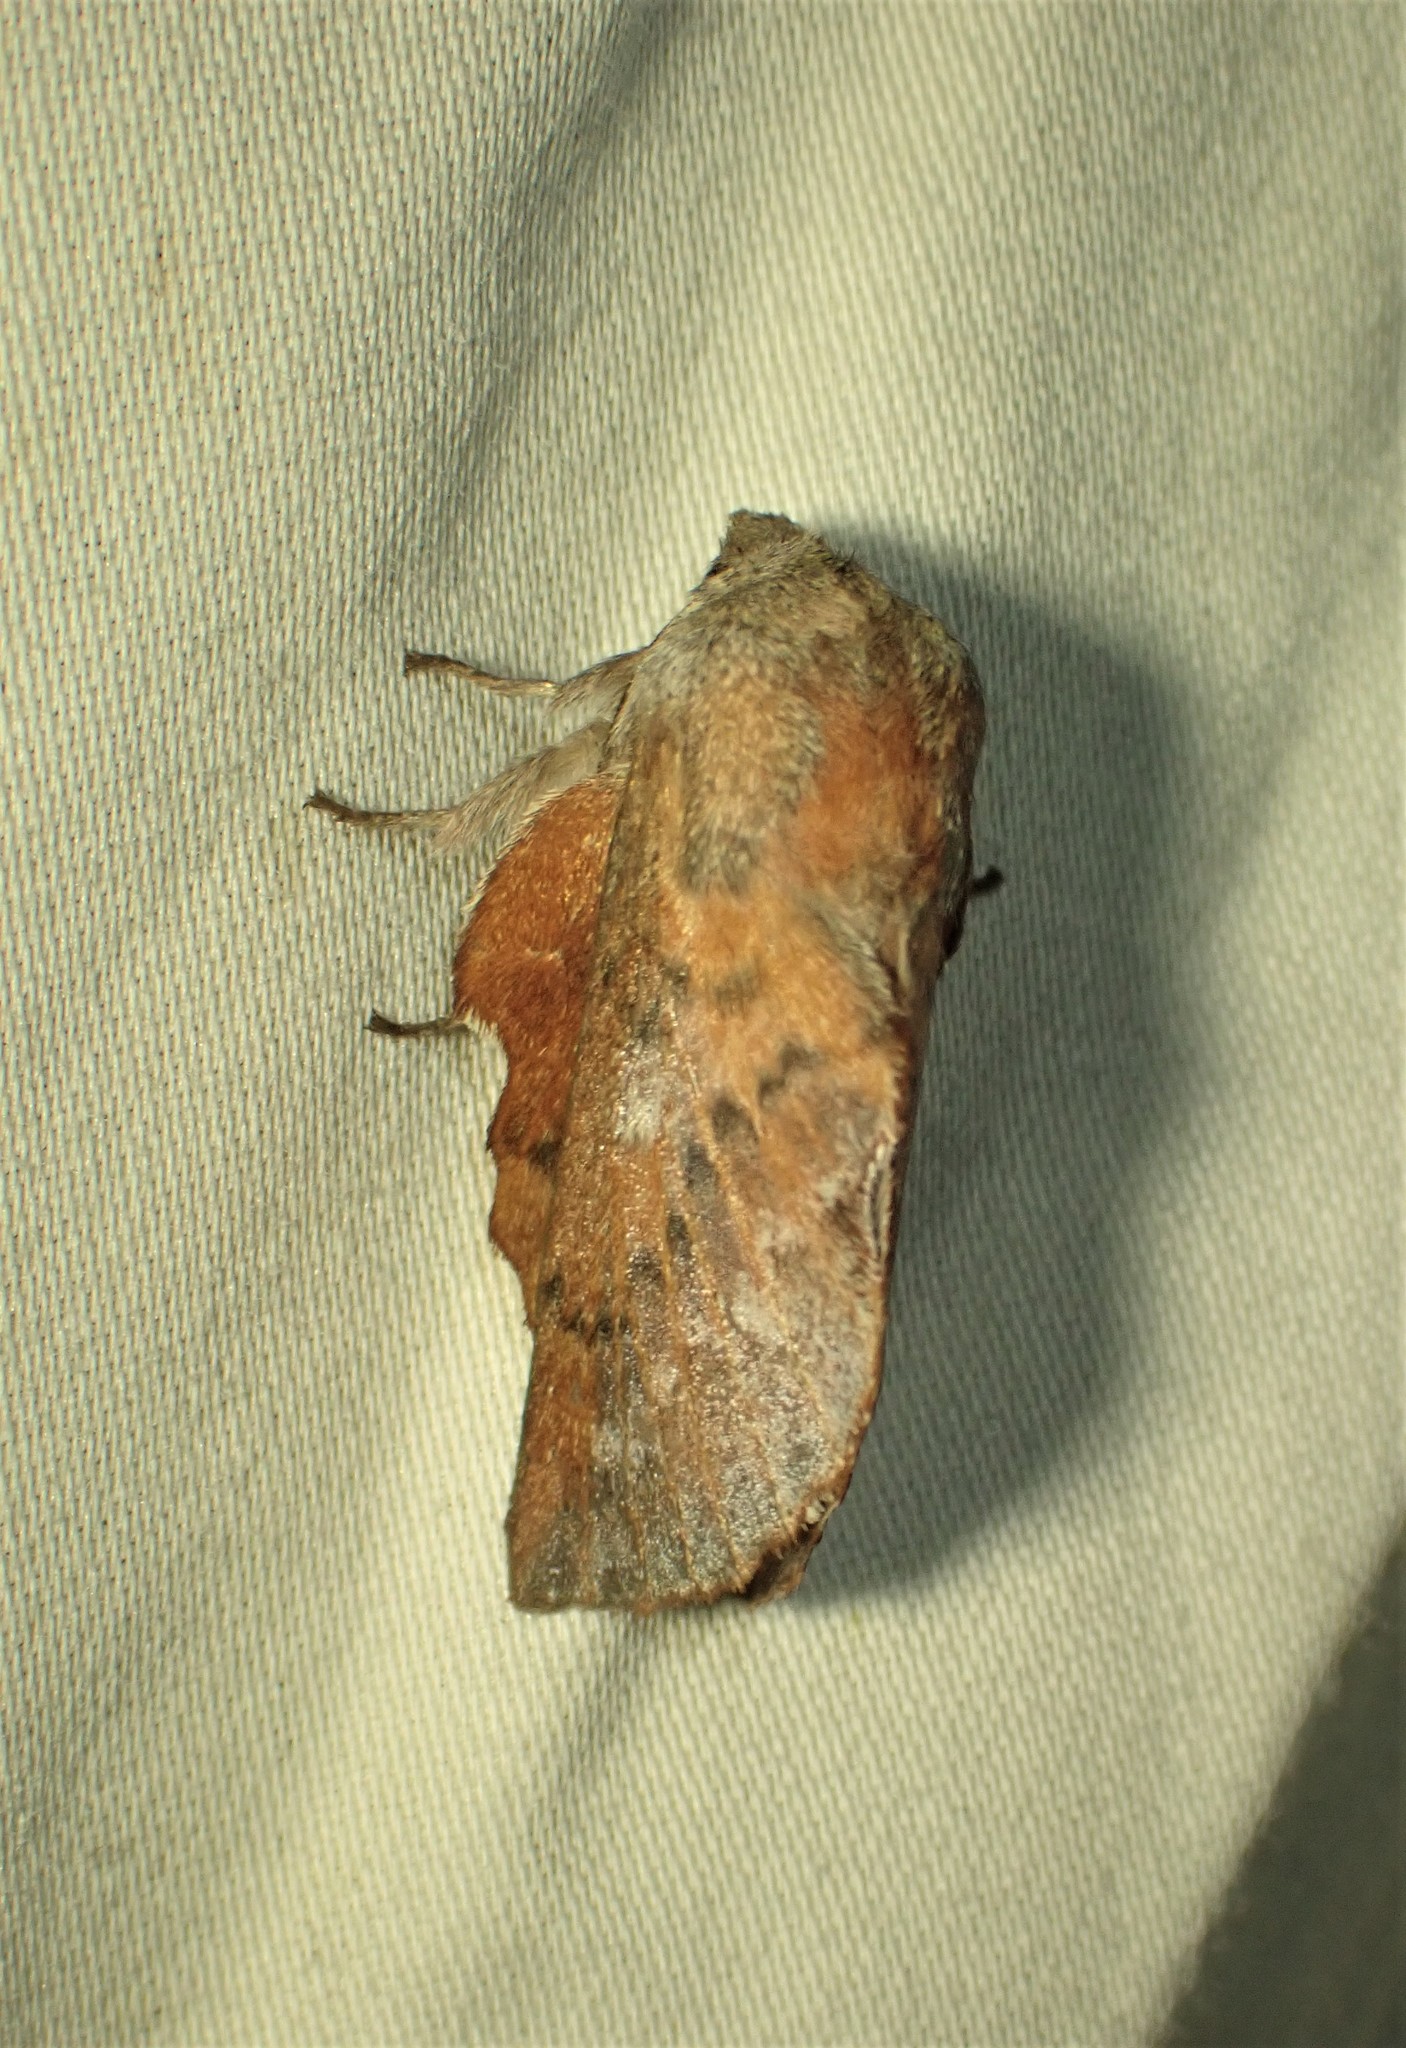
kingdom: Animalia
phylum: Arthropoda
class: Insecta
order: Lepidoptera
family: Lasiocampidae
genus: Phyllodesma
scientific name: Phyllodesma americana
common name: American lappet moth
